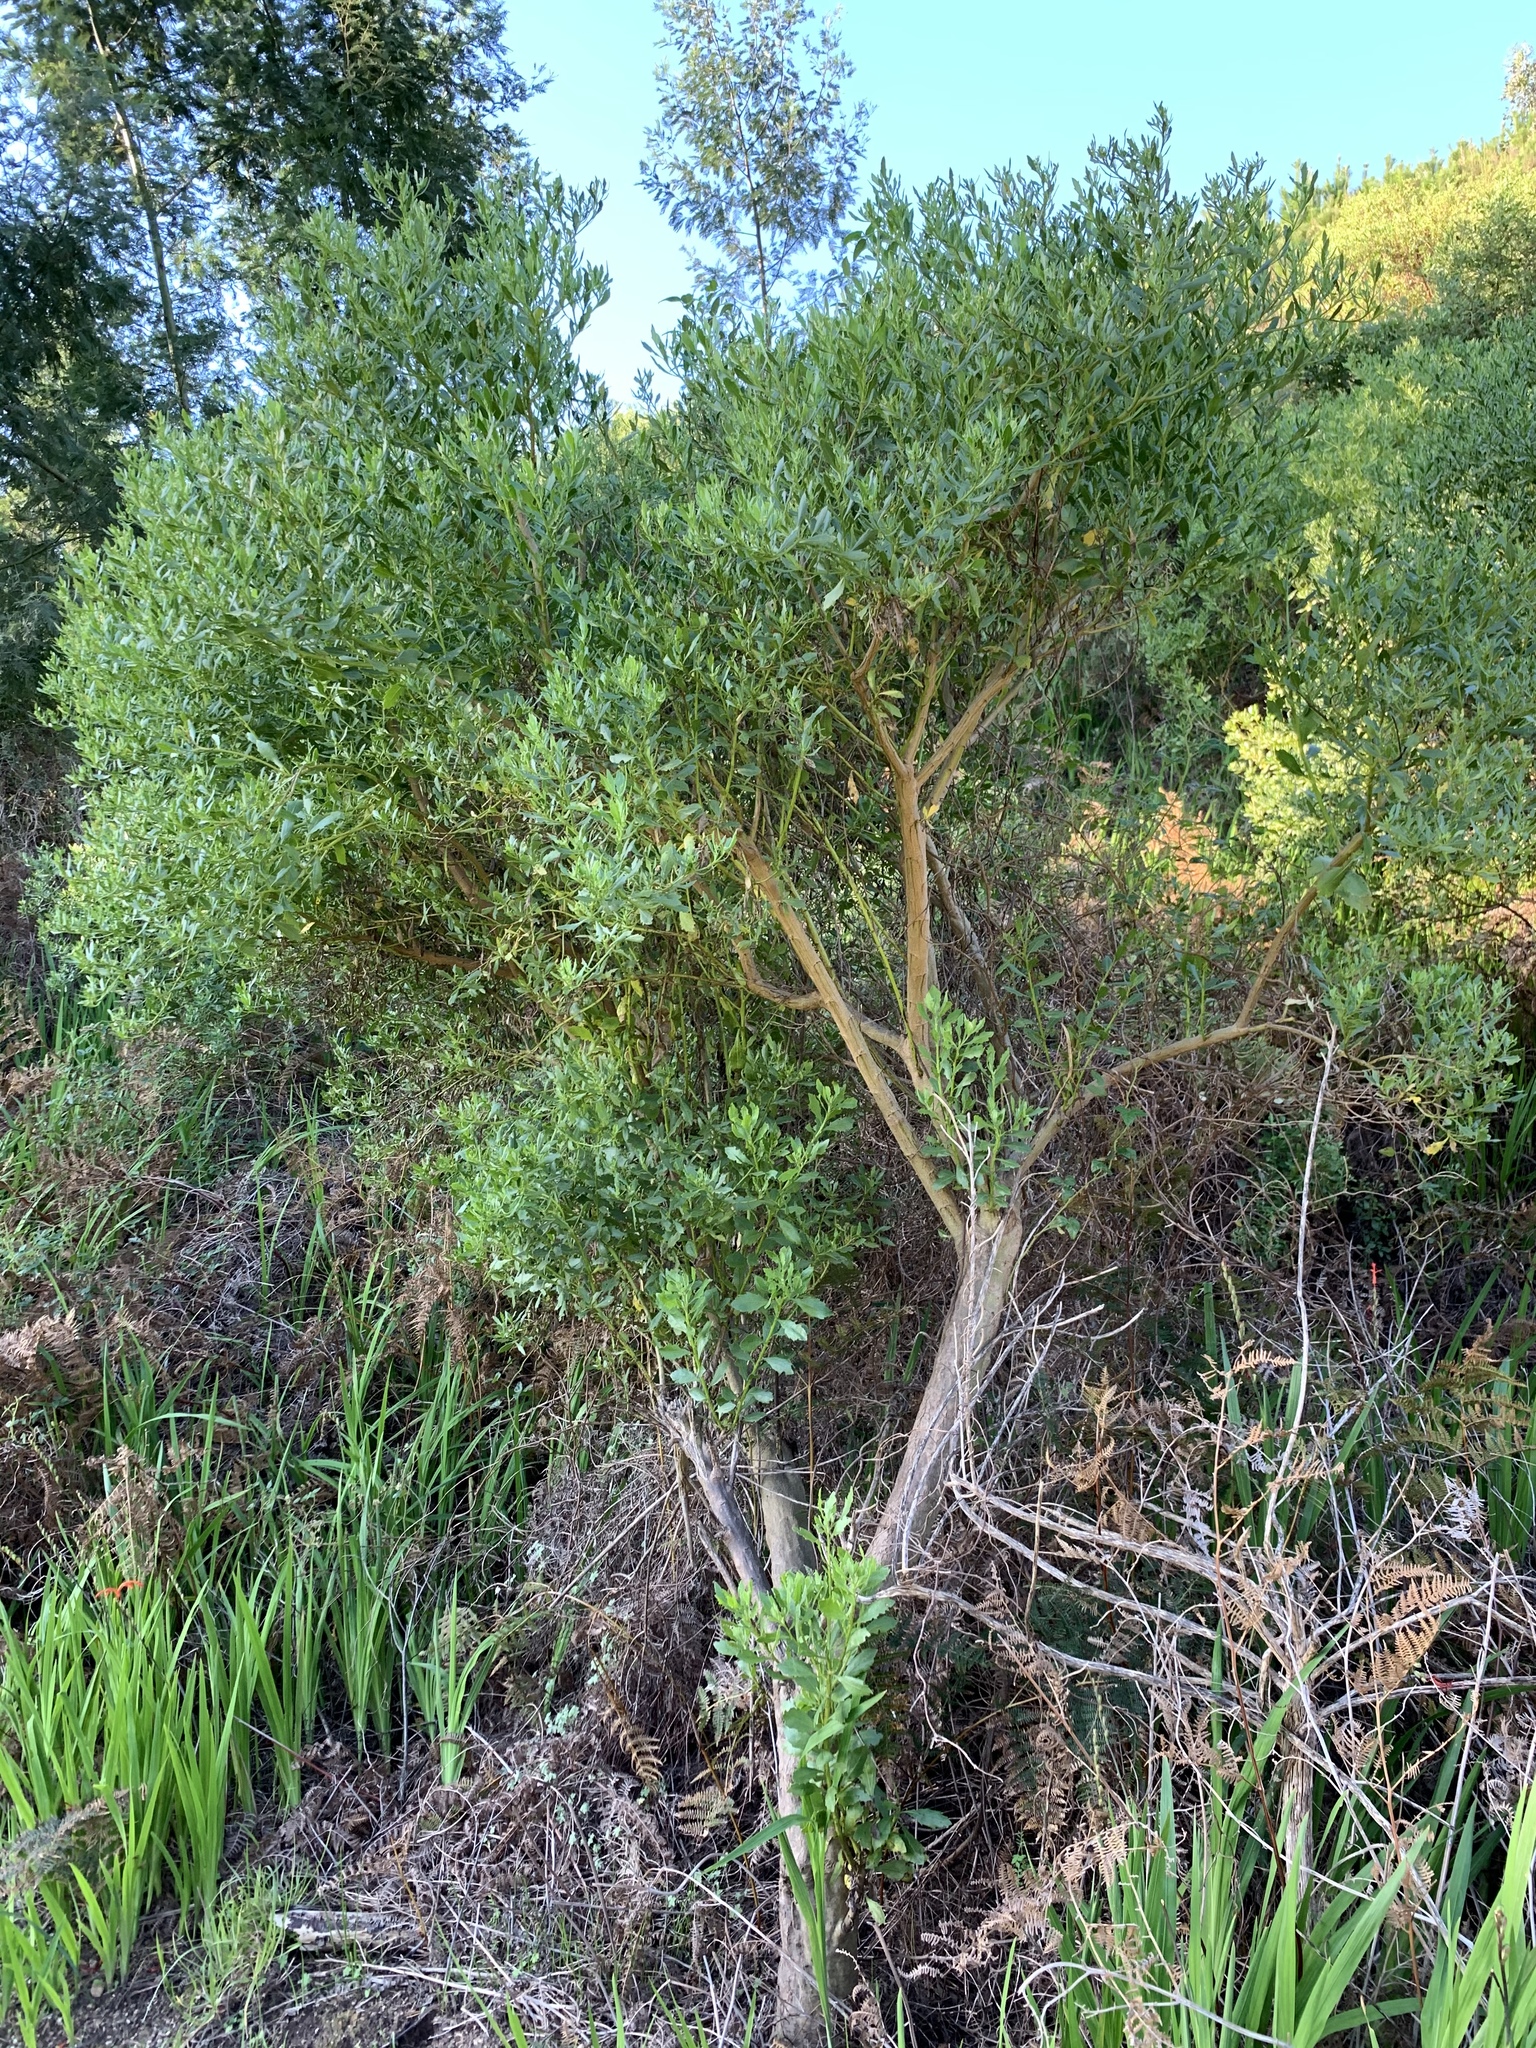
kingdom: Plantae
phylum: Tracheophyta
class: Magnoliopsida
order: Asterales
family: Asteraceae
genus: Osteospermum
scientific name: Osteospermum moniliferum
